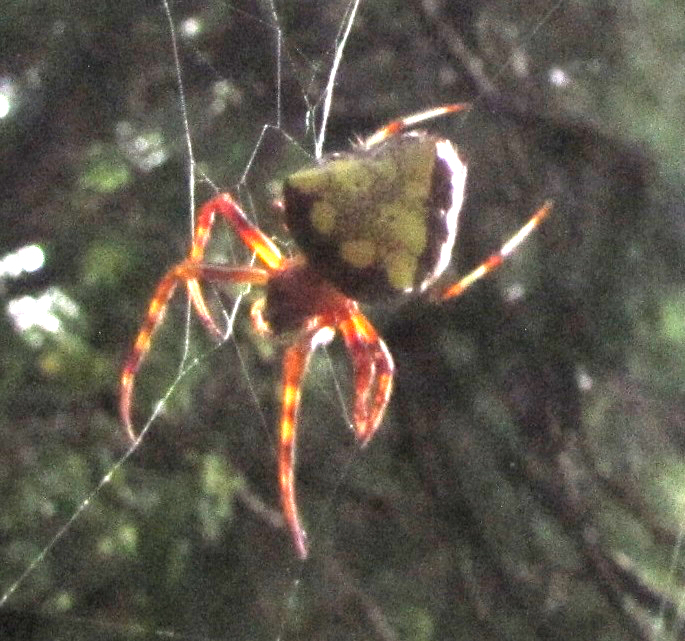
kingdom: Animalia
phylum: Arthropoda
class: Arachnida
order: Araneae
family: Araneidae
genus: Verrucosa
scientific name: Verrucosa arenata
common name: Orb weavers
